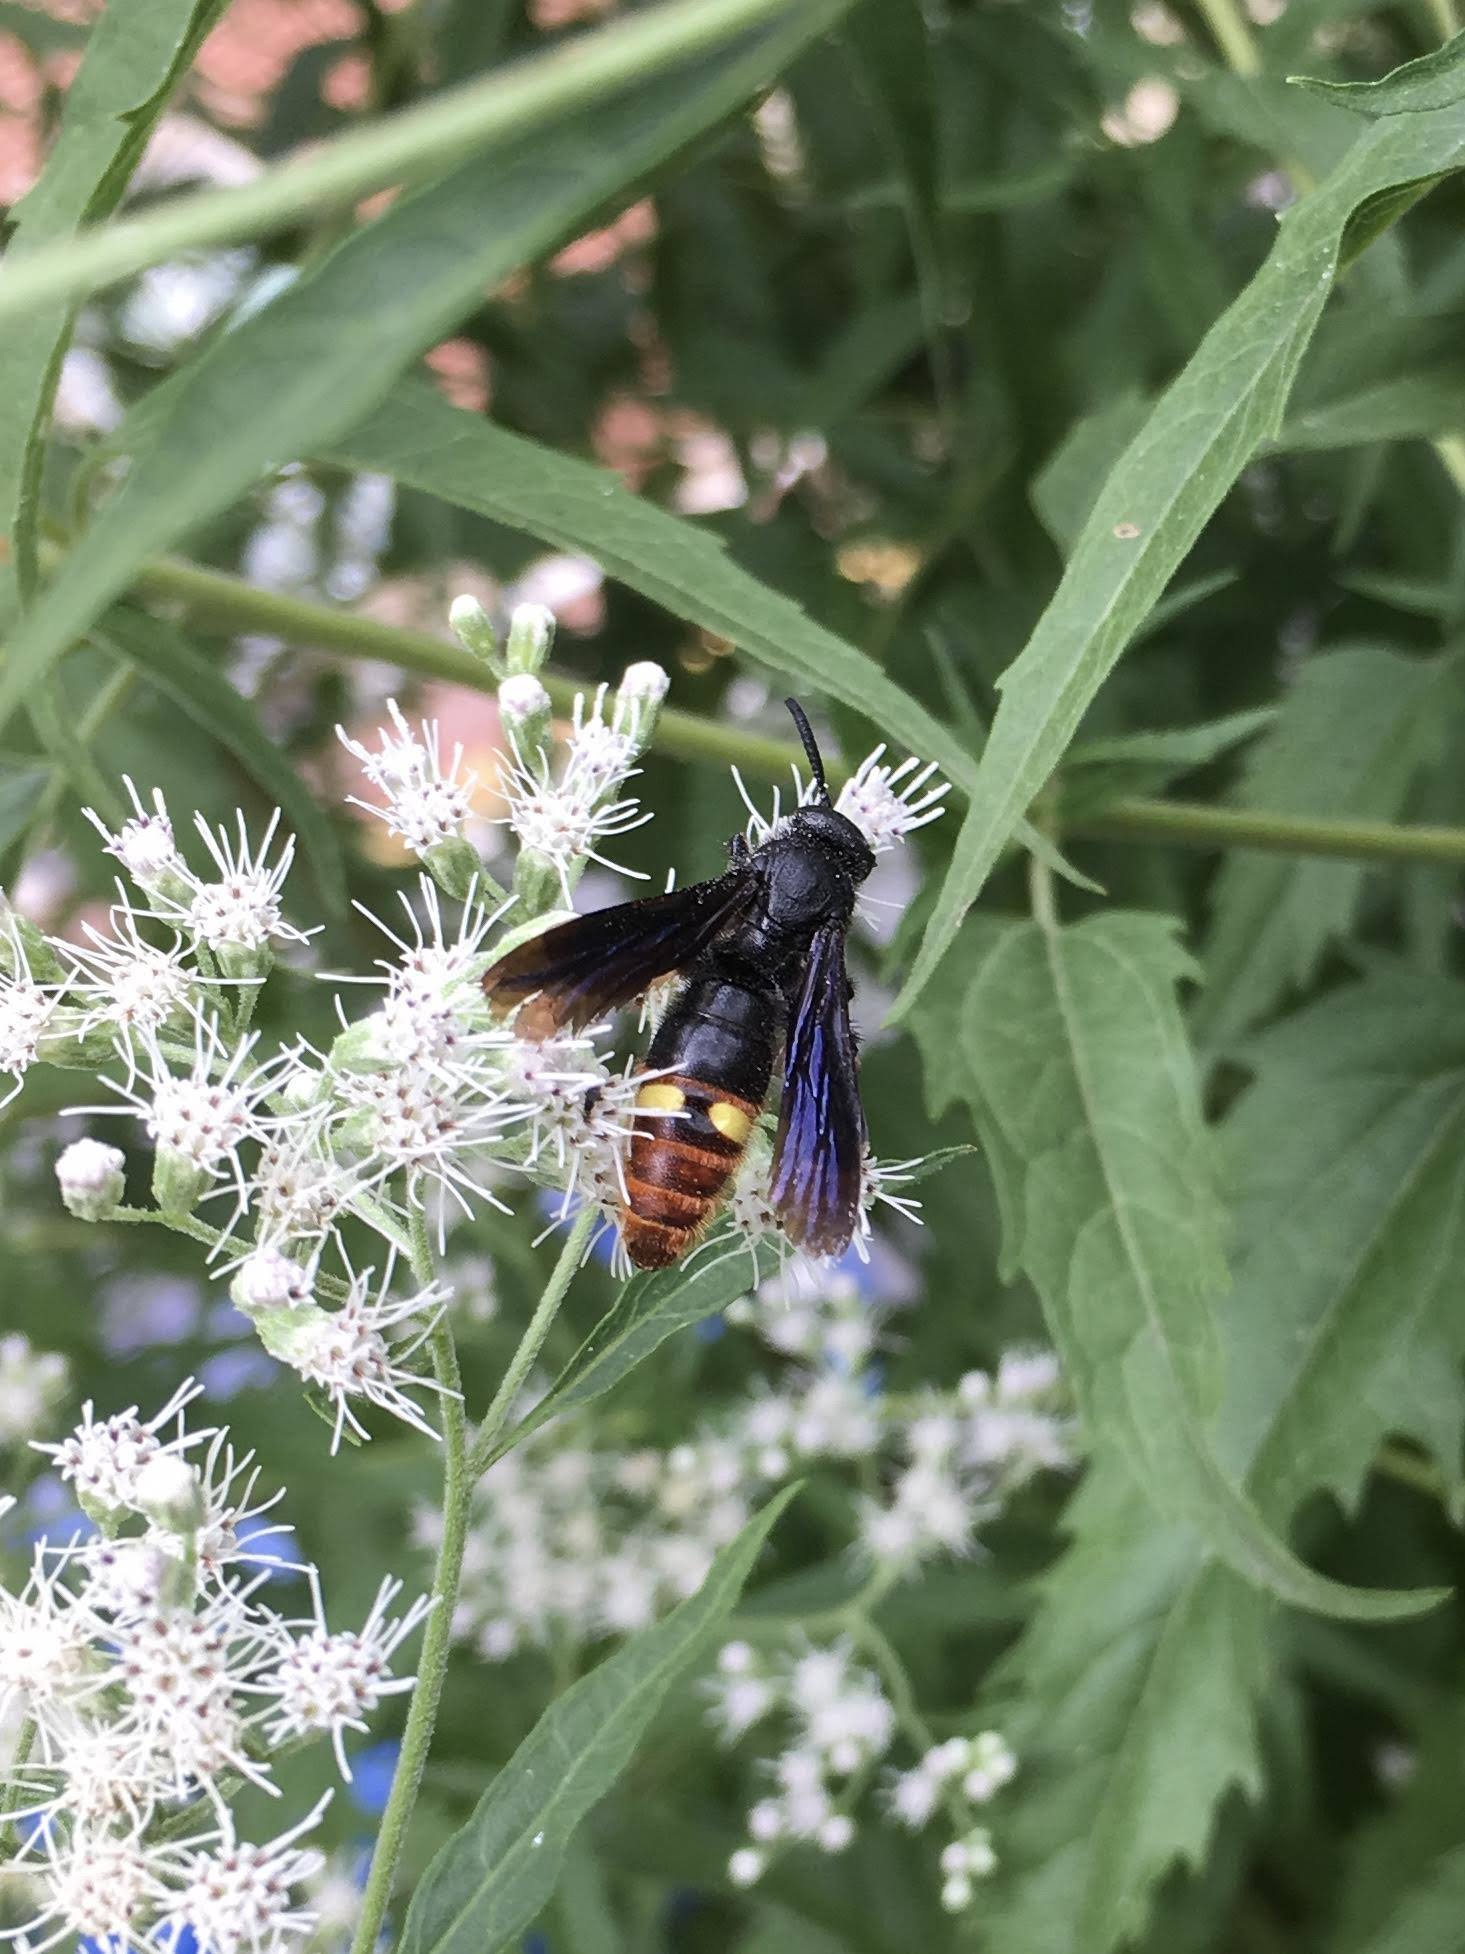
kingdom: Animalia
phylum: Arthropoda
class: Insecta
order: Hymenoptera
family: Scoliidae
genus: Scolia
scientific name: Scolia dubia
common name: Blue-winged scoliid wasp
